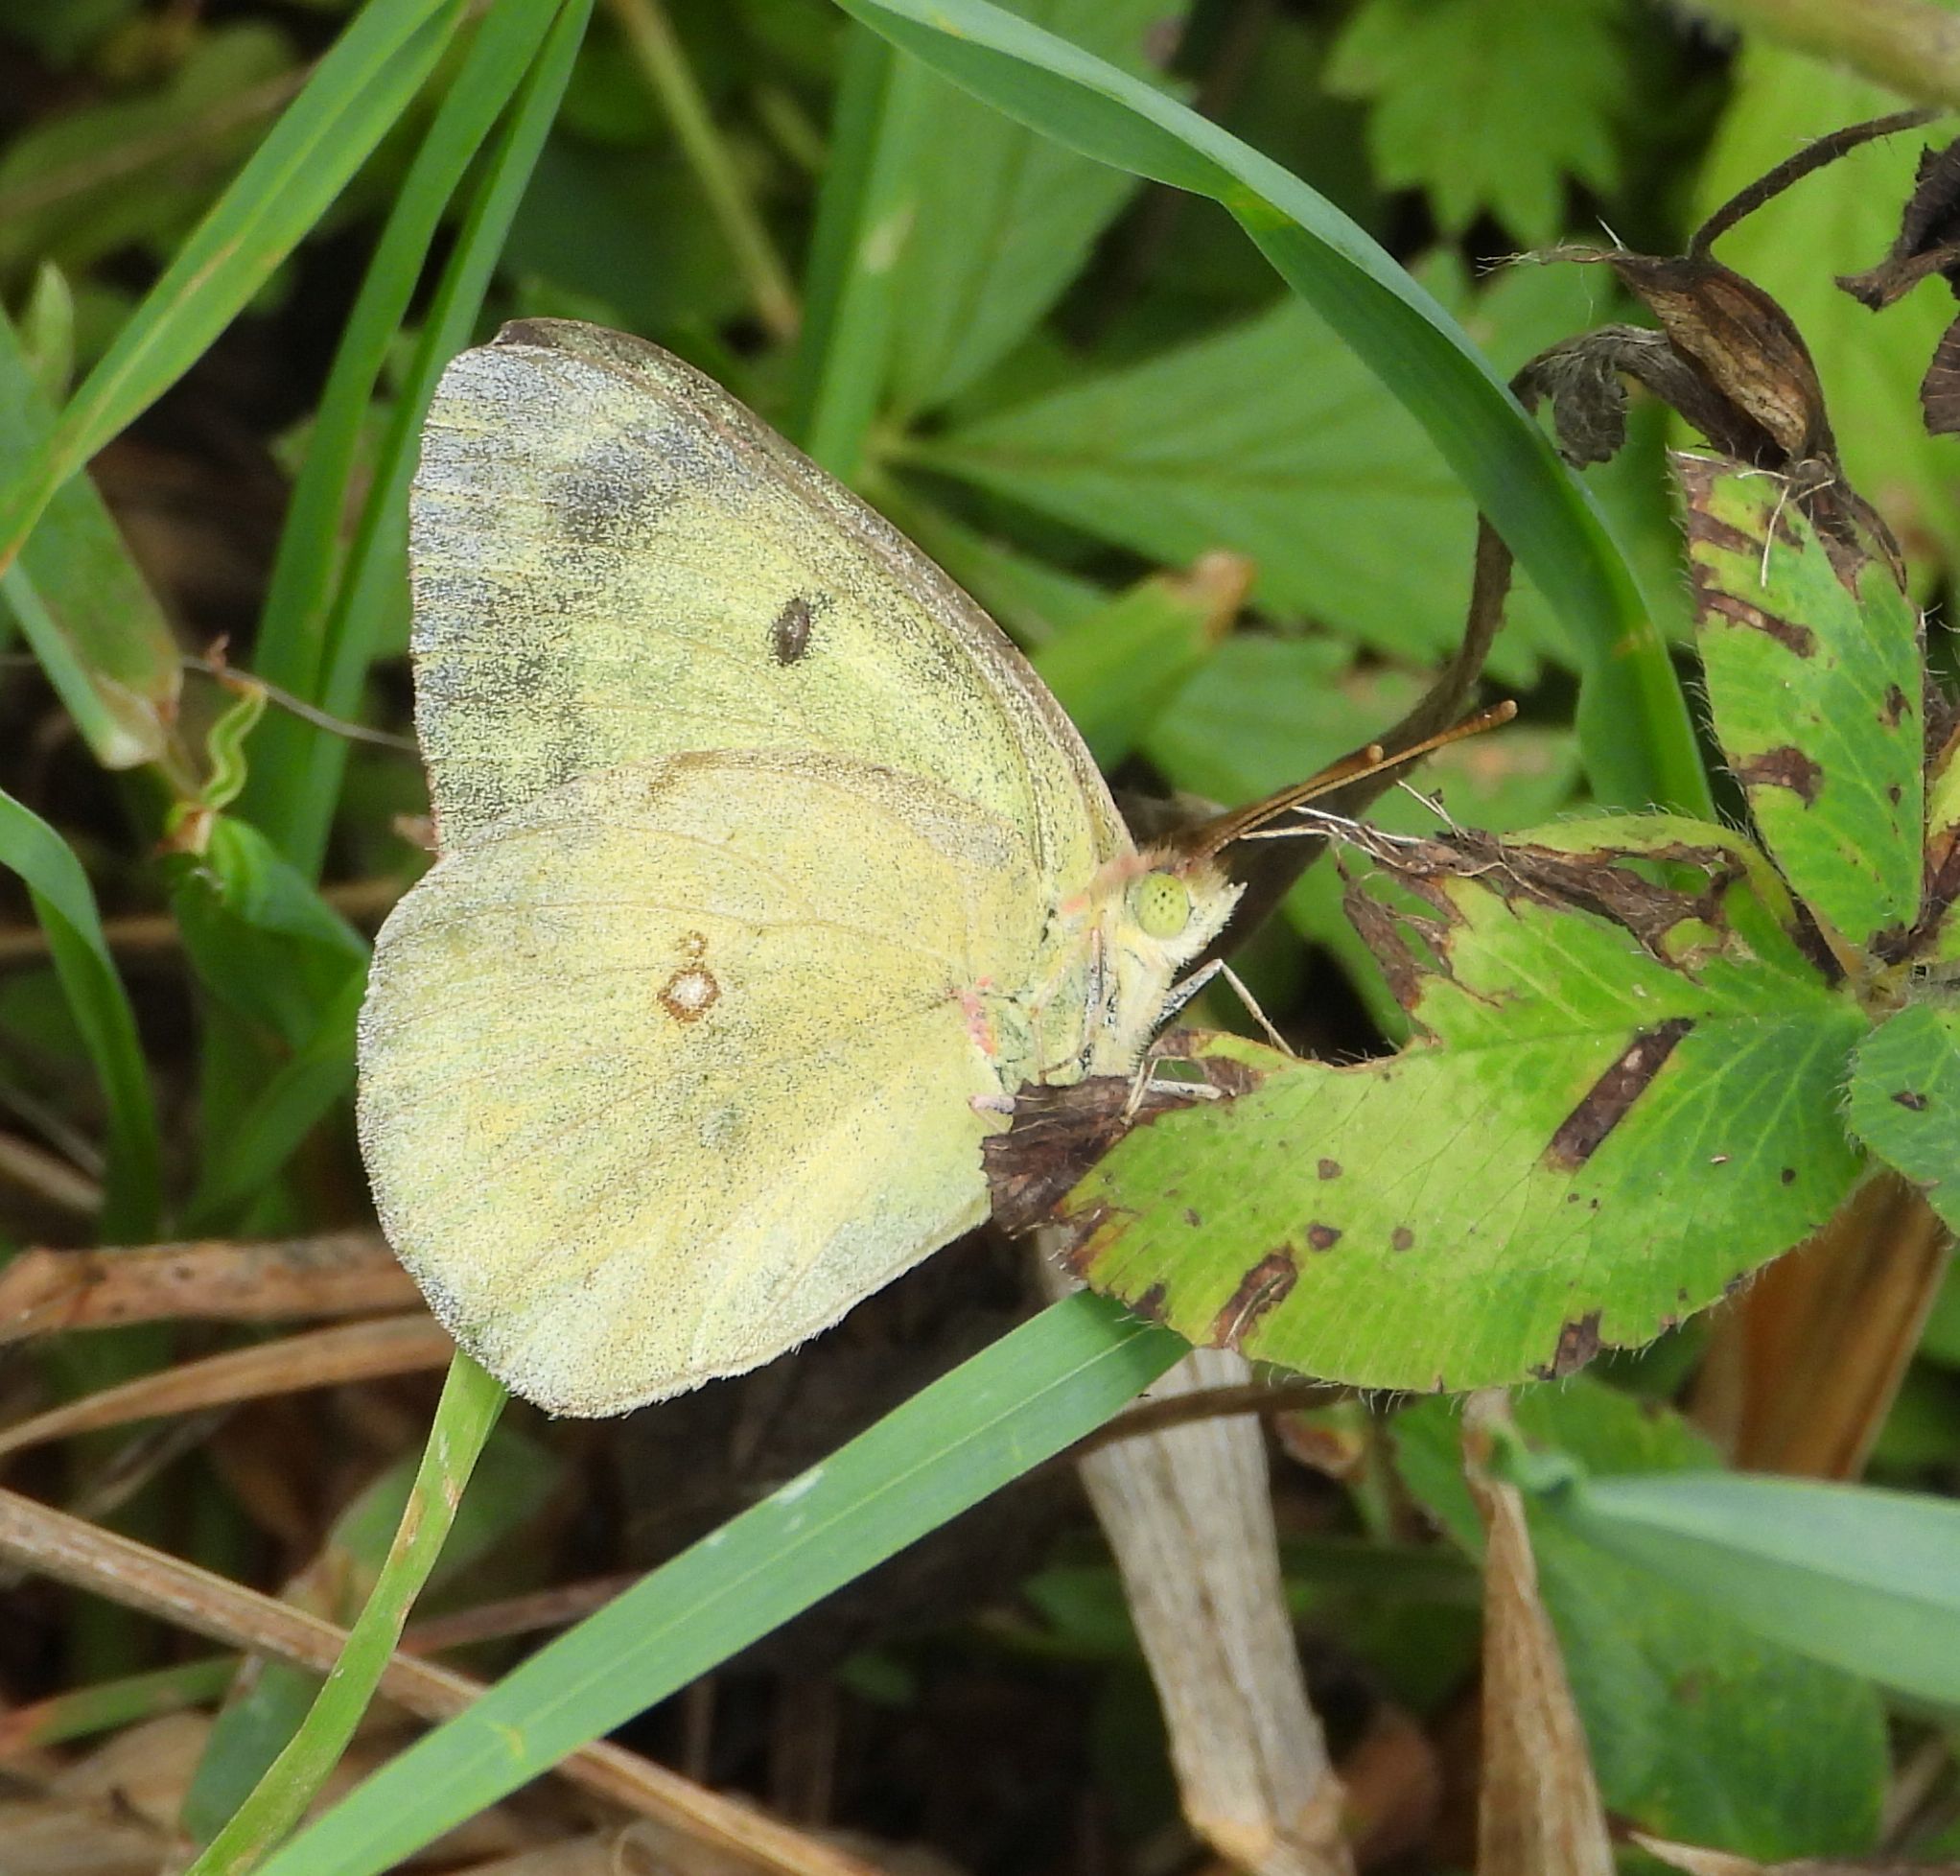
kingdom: Animalia
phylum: Arthropoda
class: Insecta
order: Lepidoptera
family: Pieridae
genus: Colias
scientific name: Colias philodice
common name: Clouded sulphur
